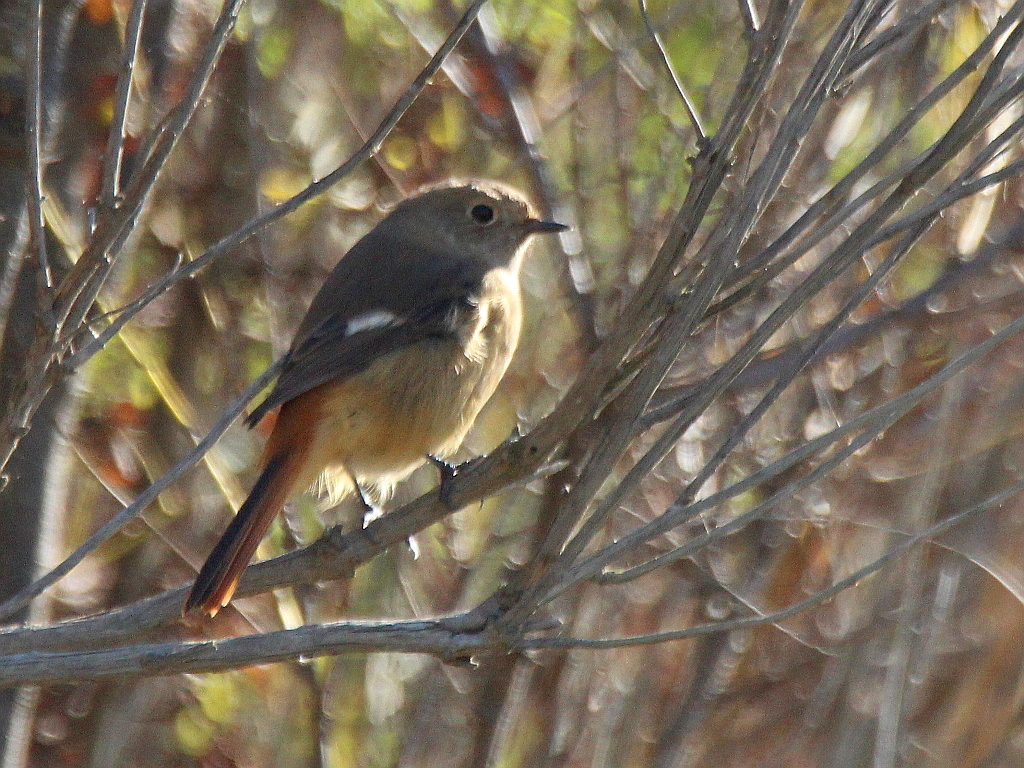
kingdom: Animalia
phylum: Chordata
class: Aves
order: Passeriformes
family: Muscicapidae
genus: Phoenicurus
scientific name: Phoenicurus auroreus
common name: Daurian redstart
